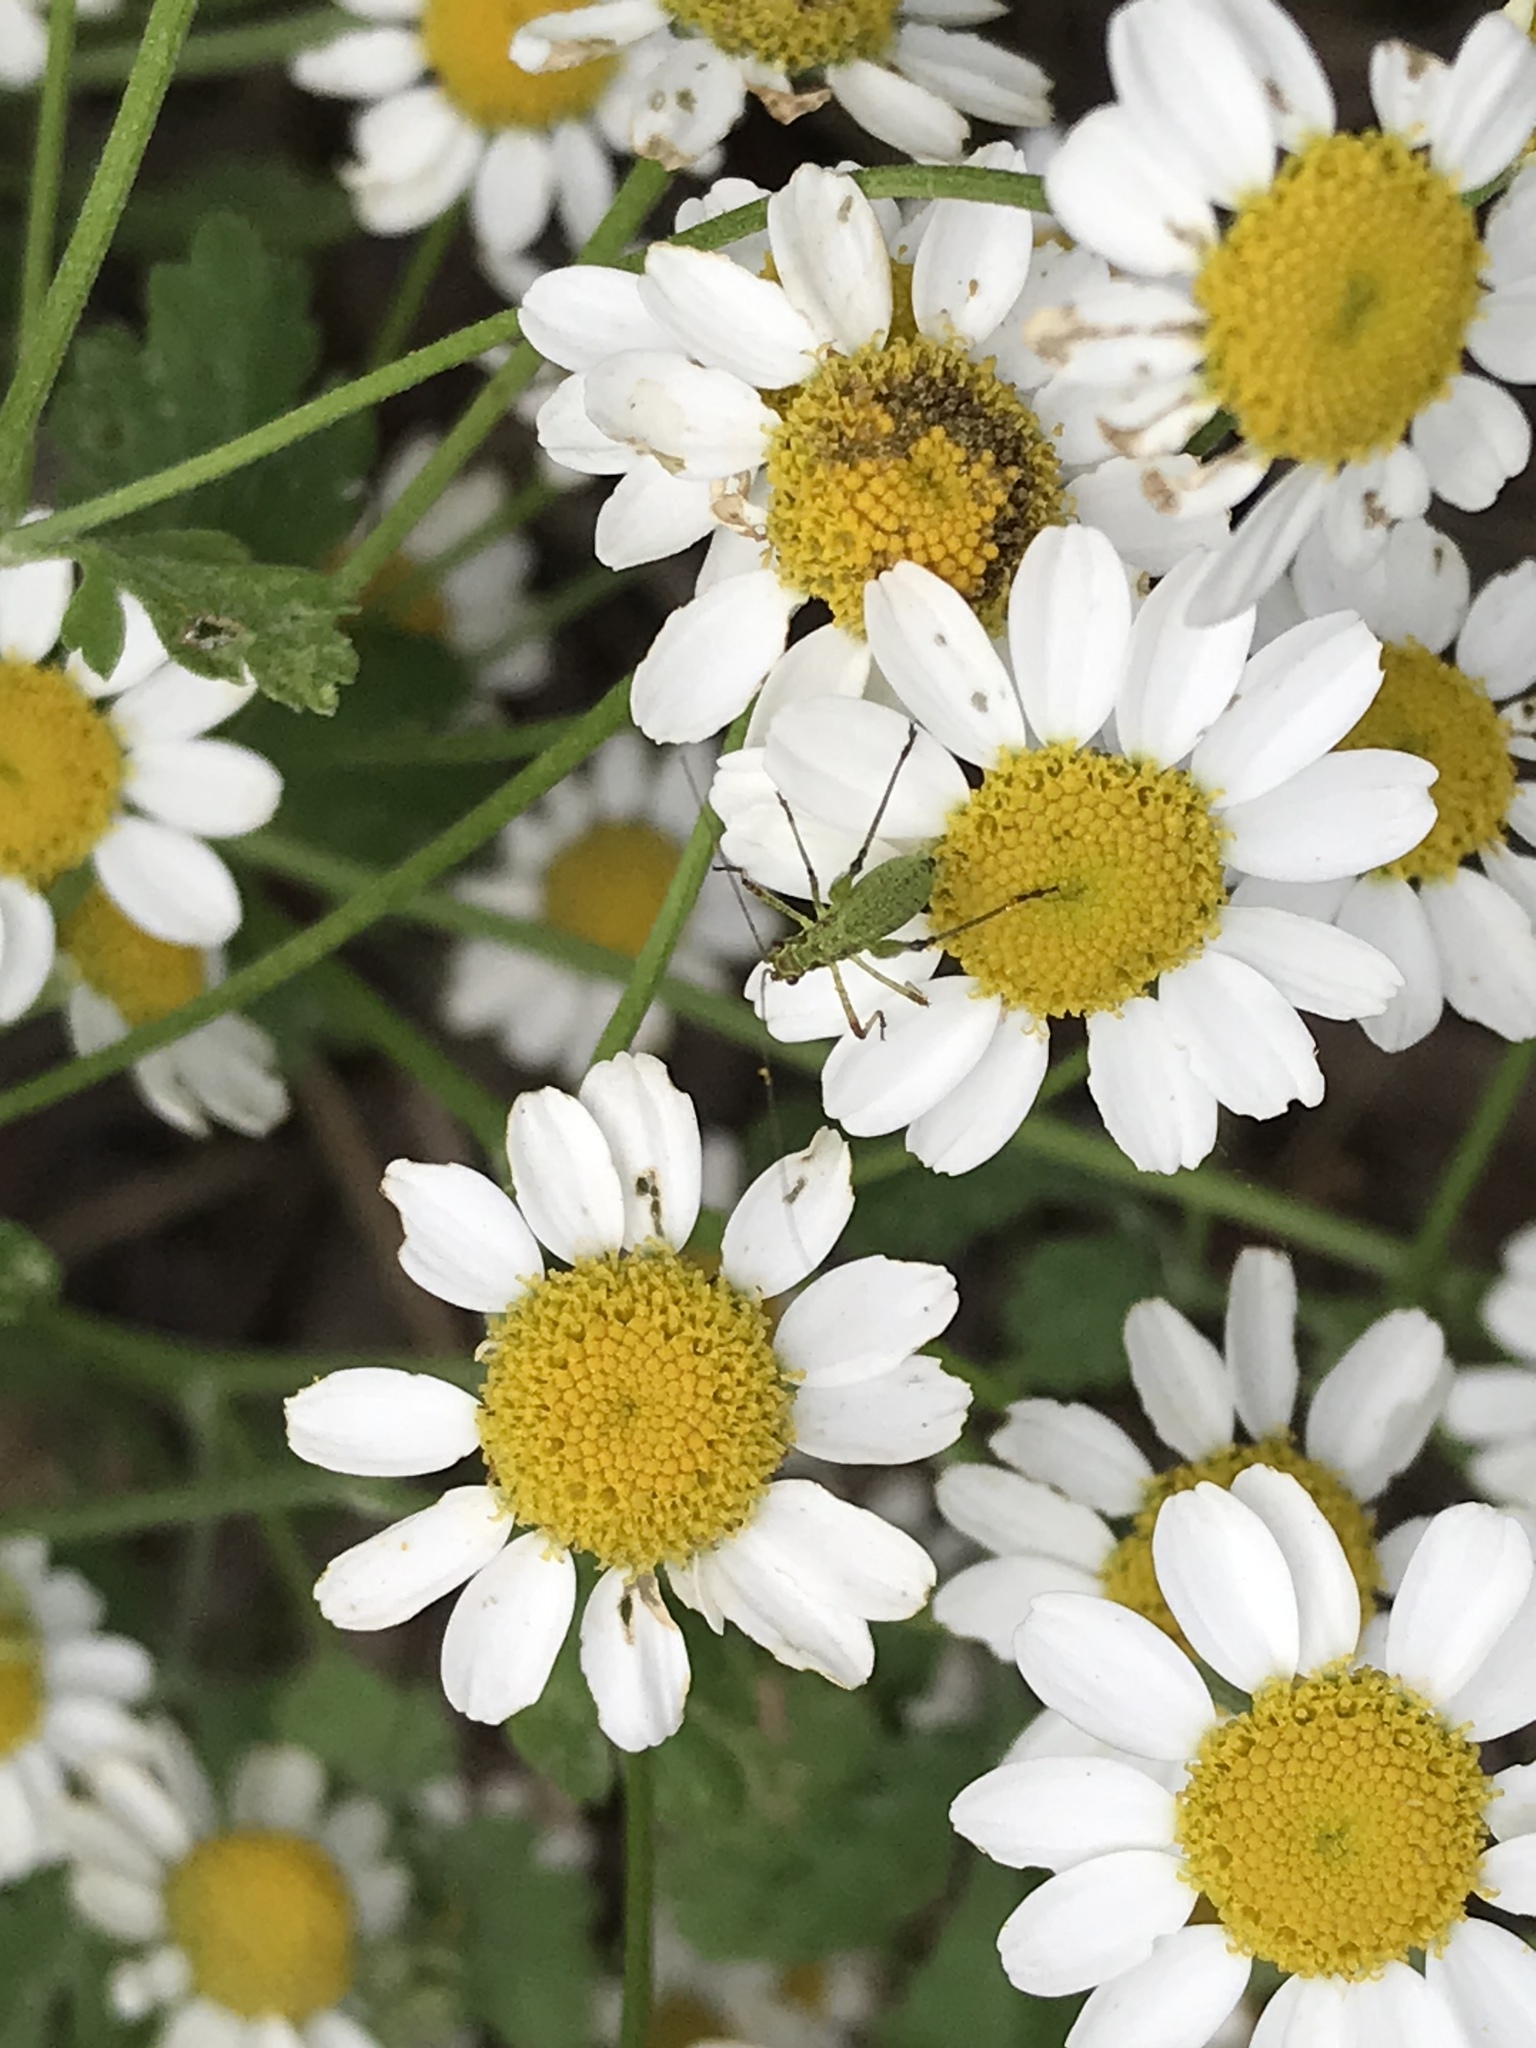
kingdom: Animalia
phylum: Arthropoda
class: Insecta
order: Orthoptera
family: Tettigoniidae
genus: Phaneroptera
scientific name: Phaneroptera nana
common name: Southern sickle bush-cricket
